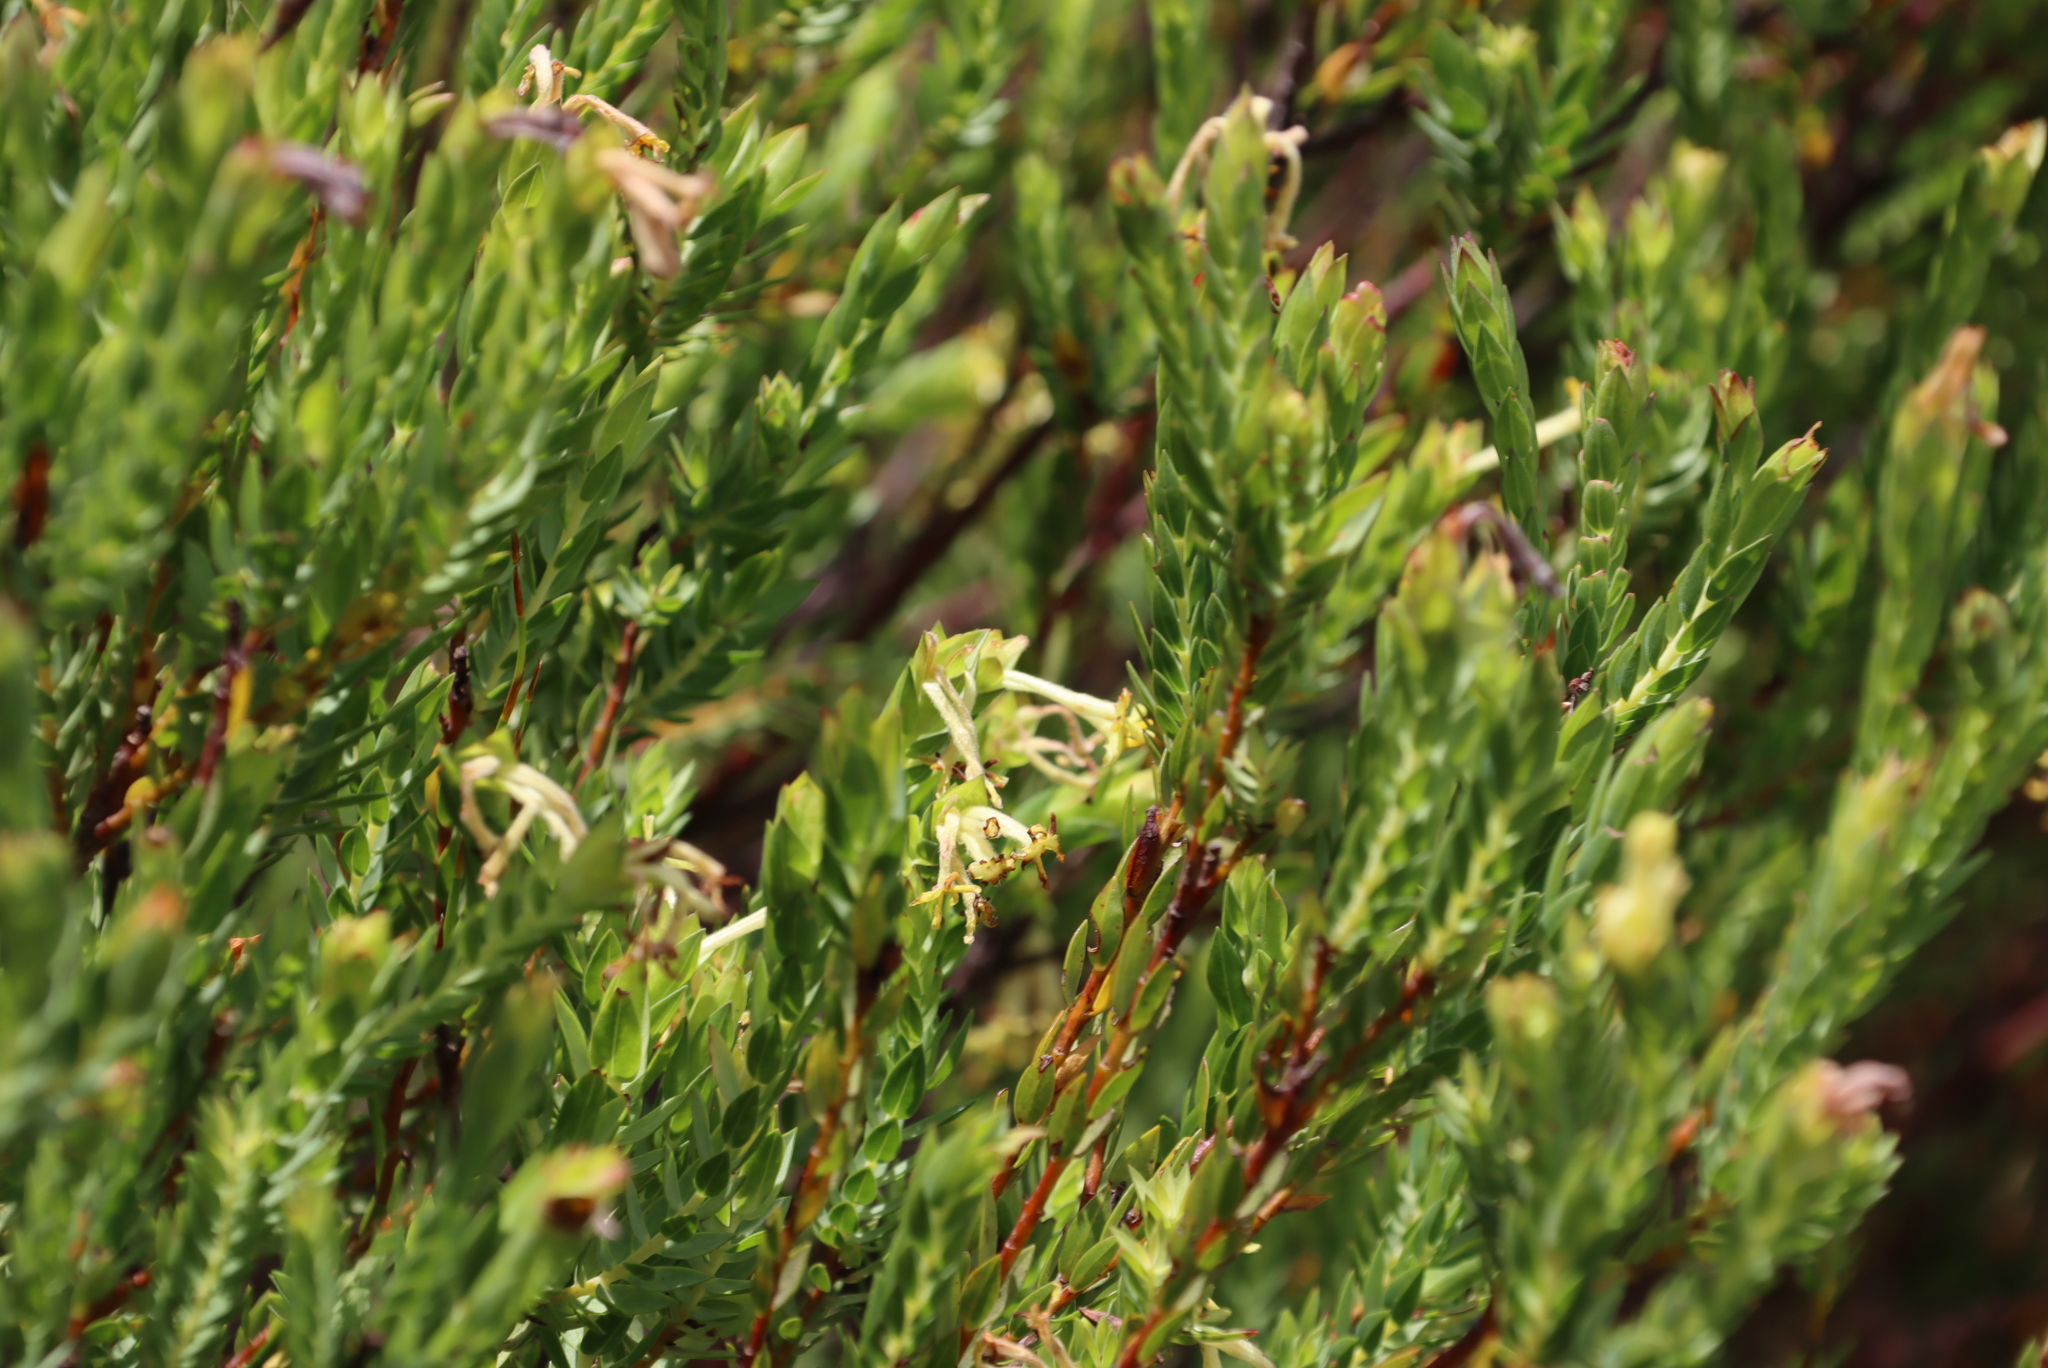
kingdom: Plantae
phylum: Tracheophyta
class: Magnoliopsida
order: Malvales
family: Thymelaeaceae
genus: Gnidia
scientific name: Gnidia oppositifolia
